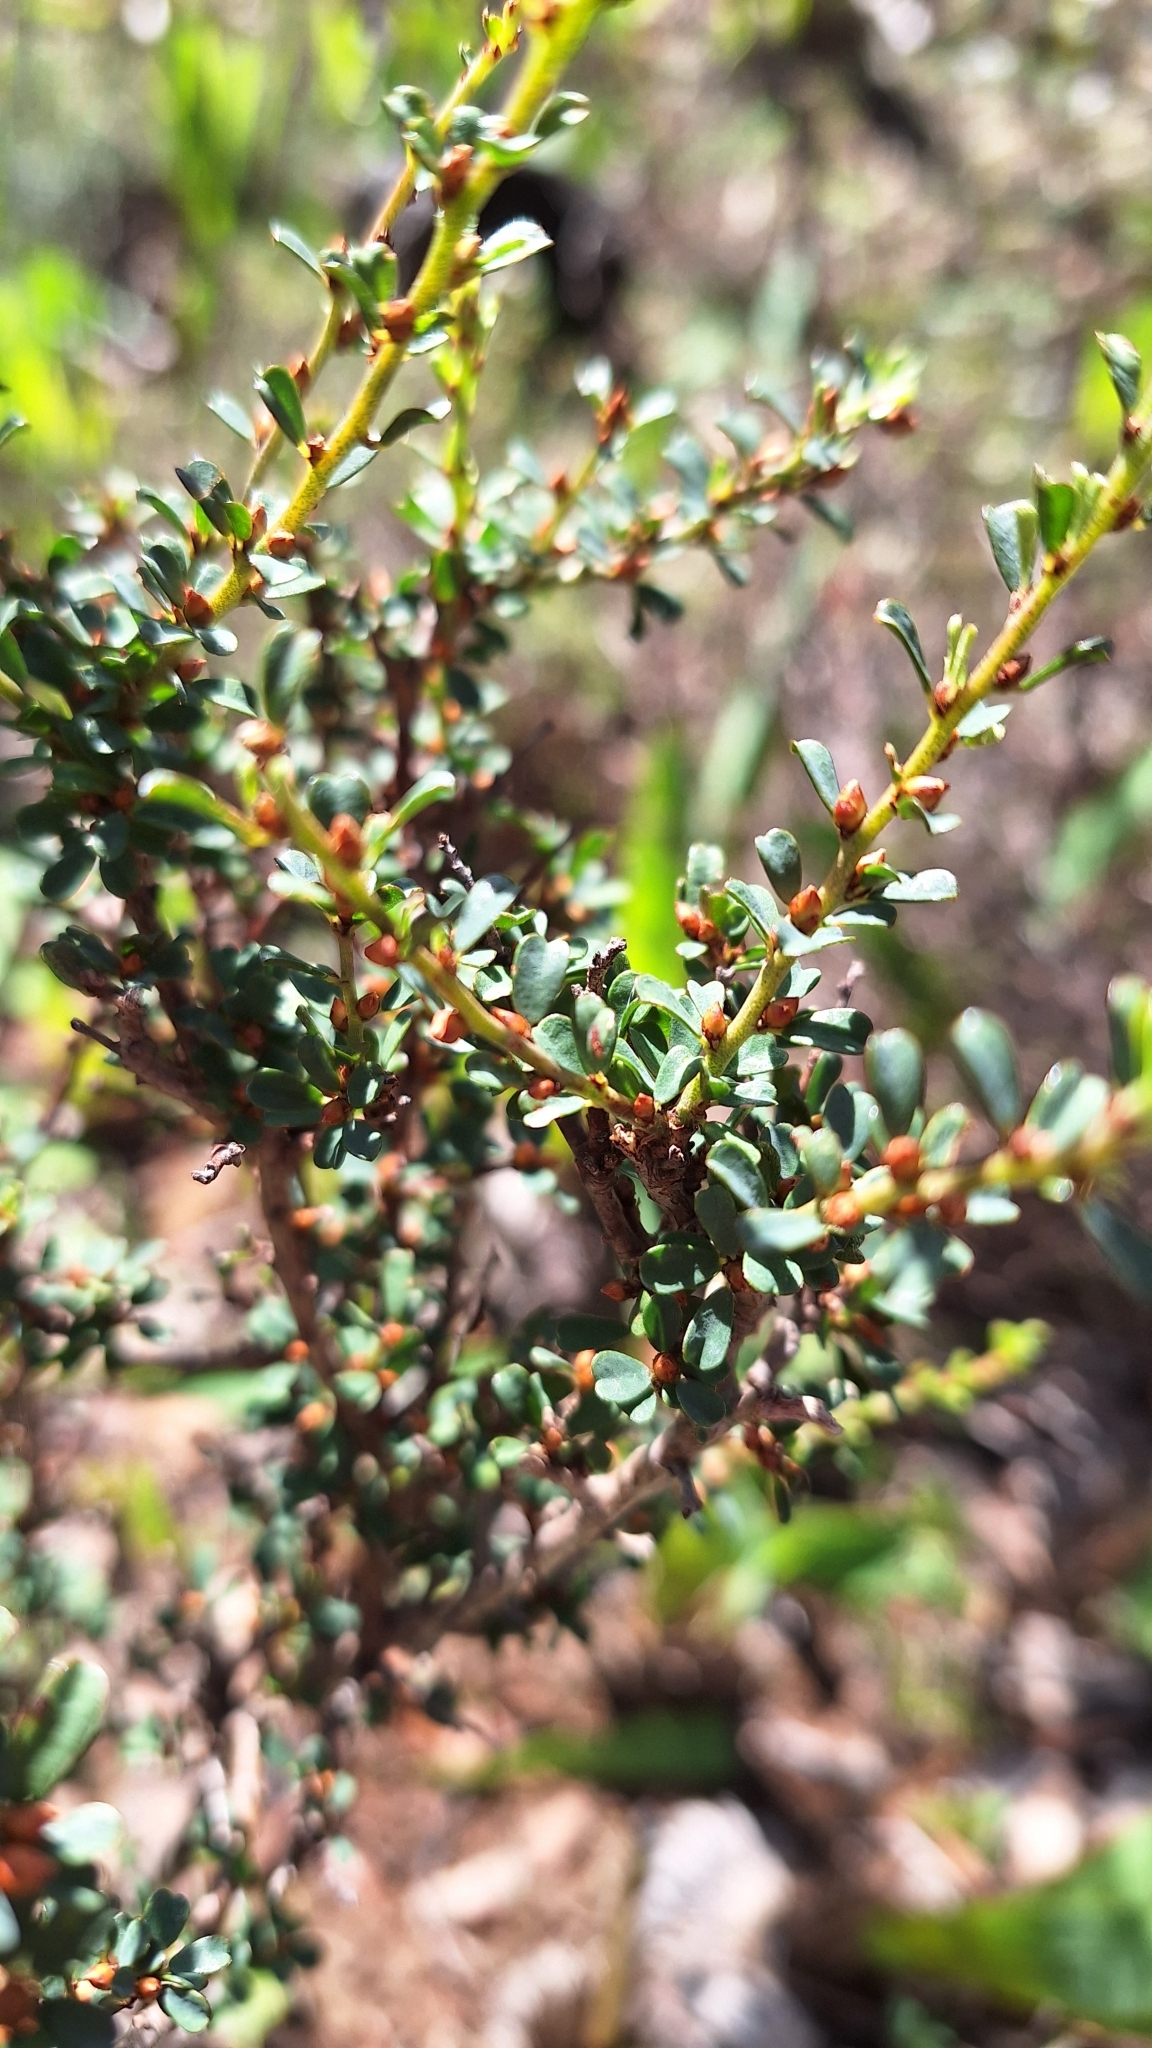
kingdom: Plantae
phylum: Tracheophyta
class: Magnoliopsida
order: Fabales
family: Fabaceae
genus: Pultenaea
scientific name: Pultenaea largiflorens
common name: Twiggy bush-pea
